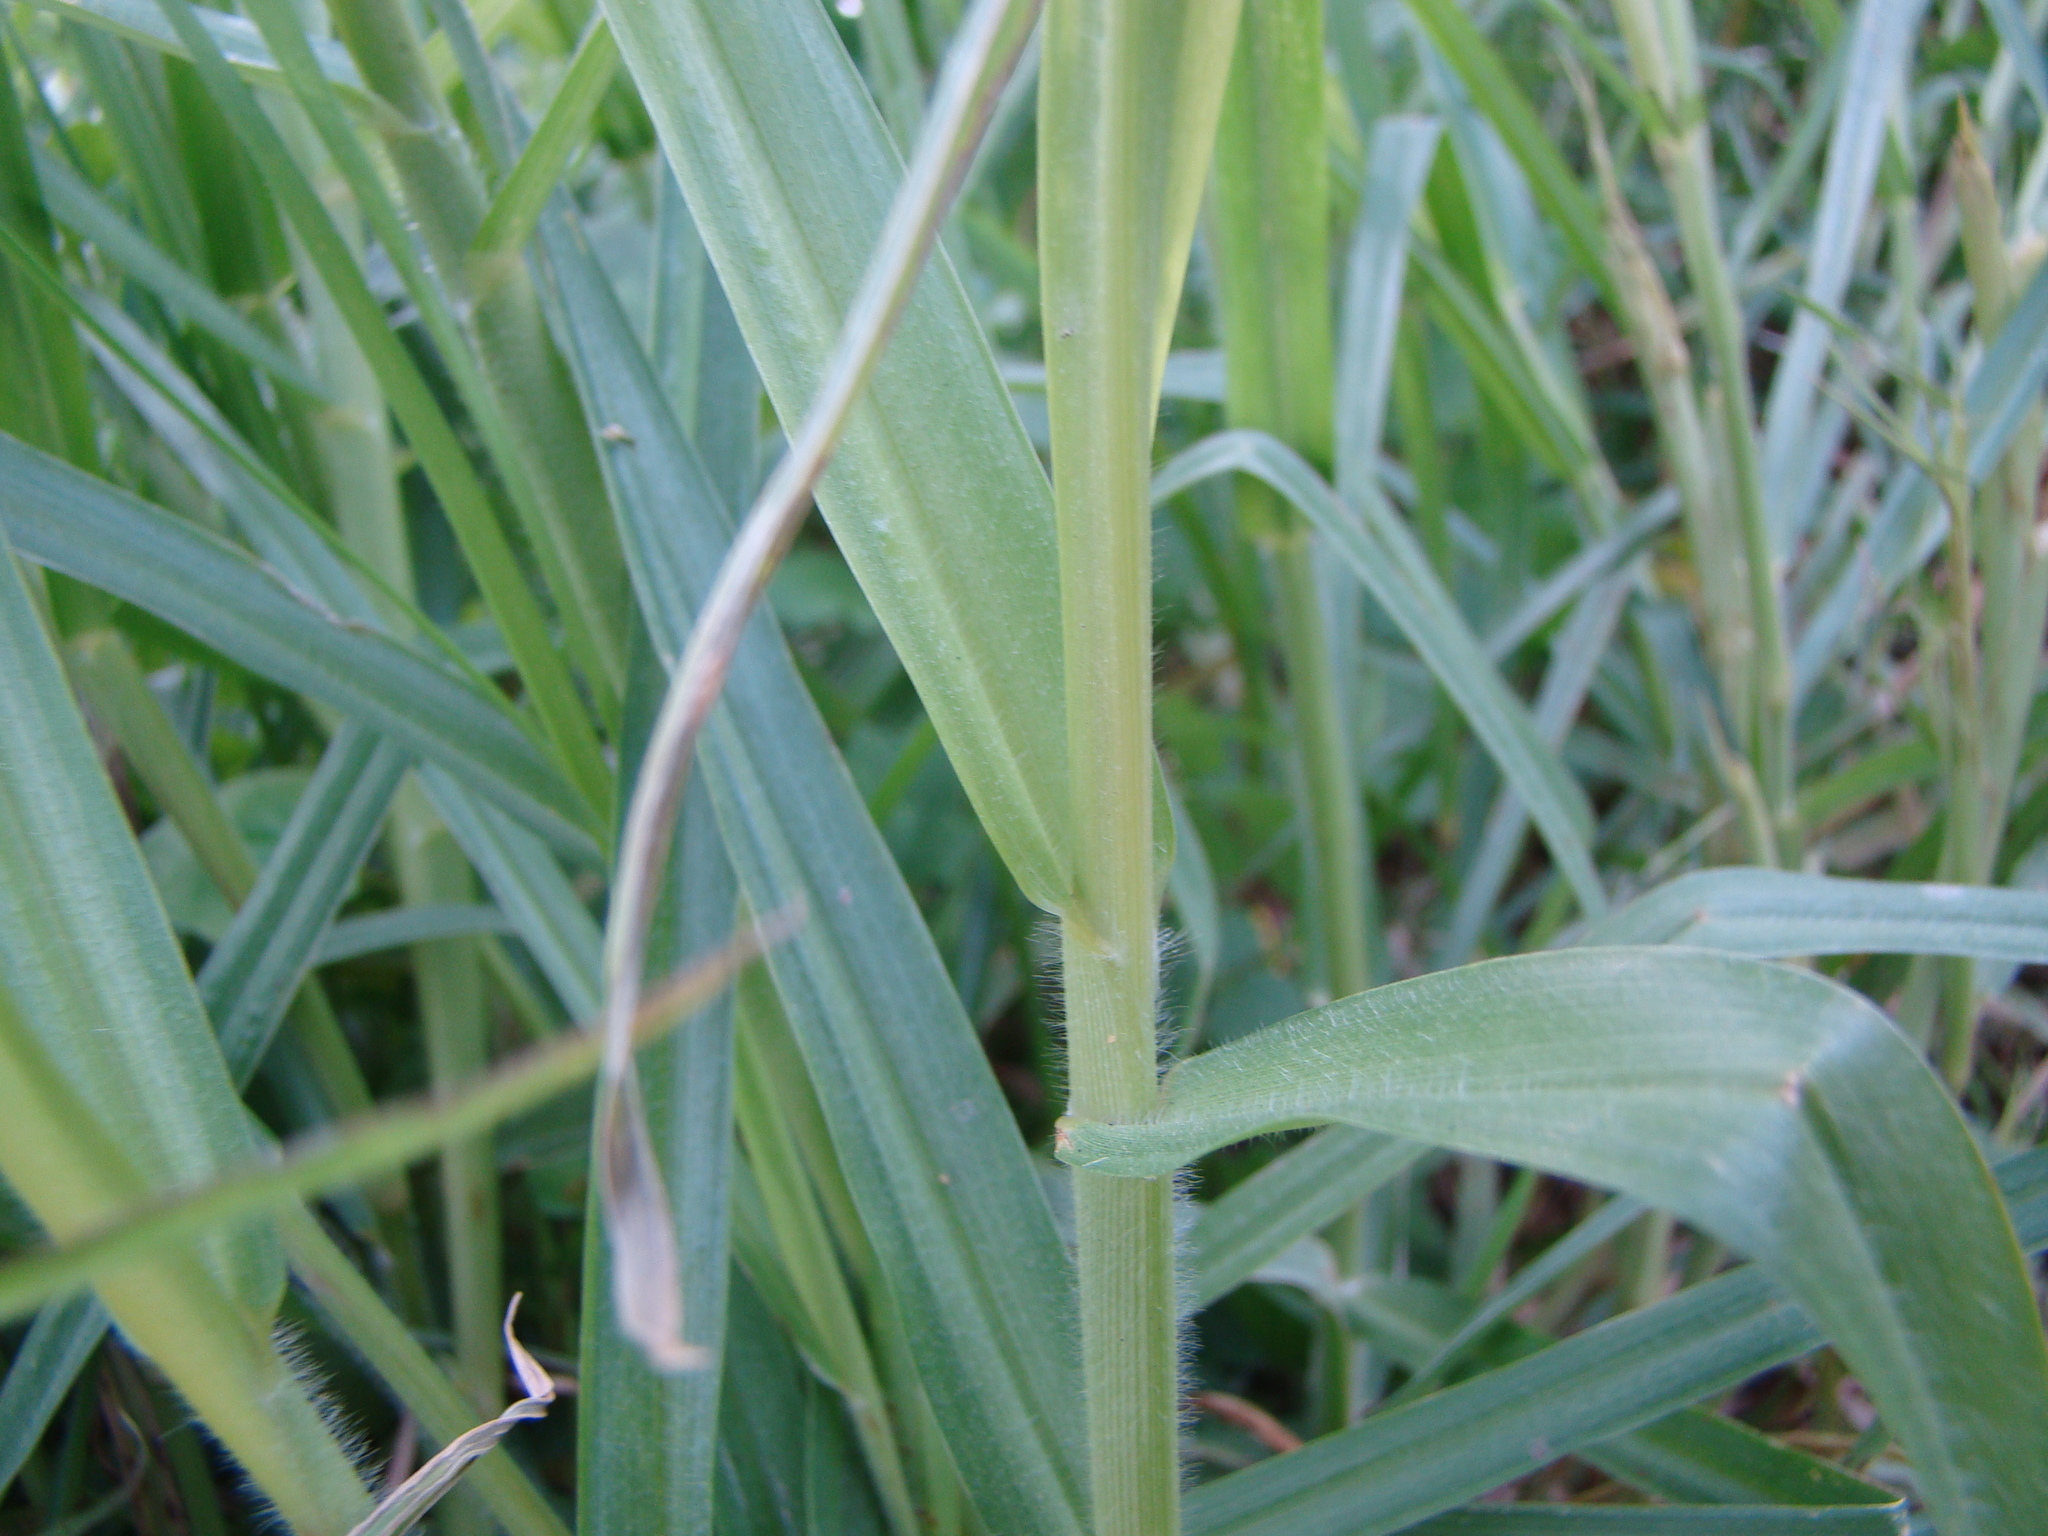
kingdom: Plantae
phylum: Tracheophyta
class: Liliopsida
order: Poales
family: Poaceae
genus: Cenchrus
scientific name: Cenchrus clandestinus
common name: Kikuyugrass
